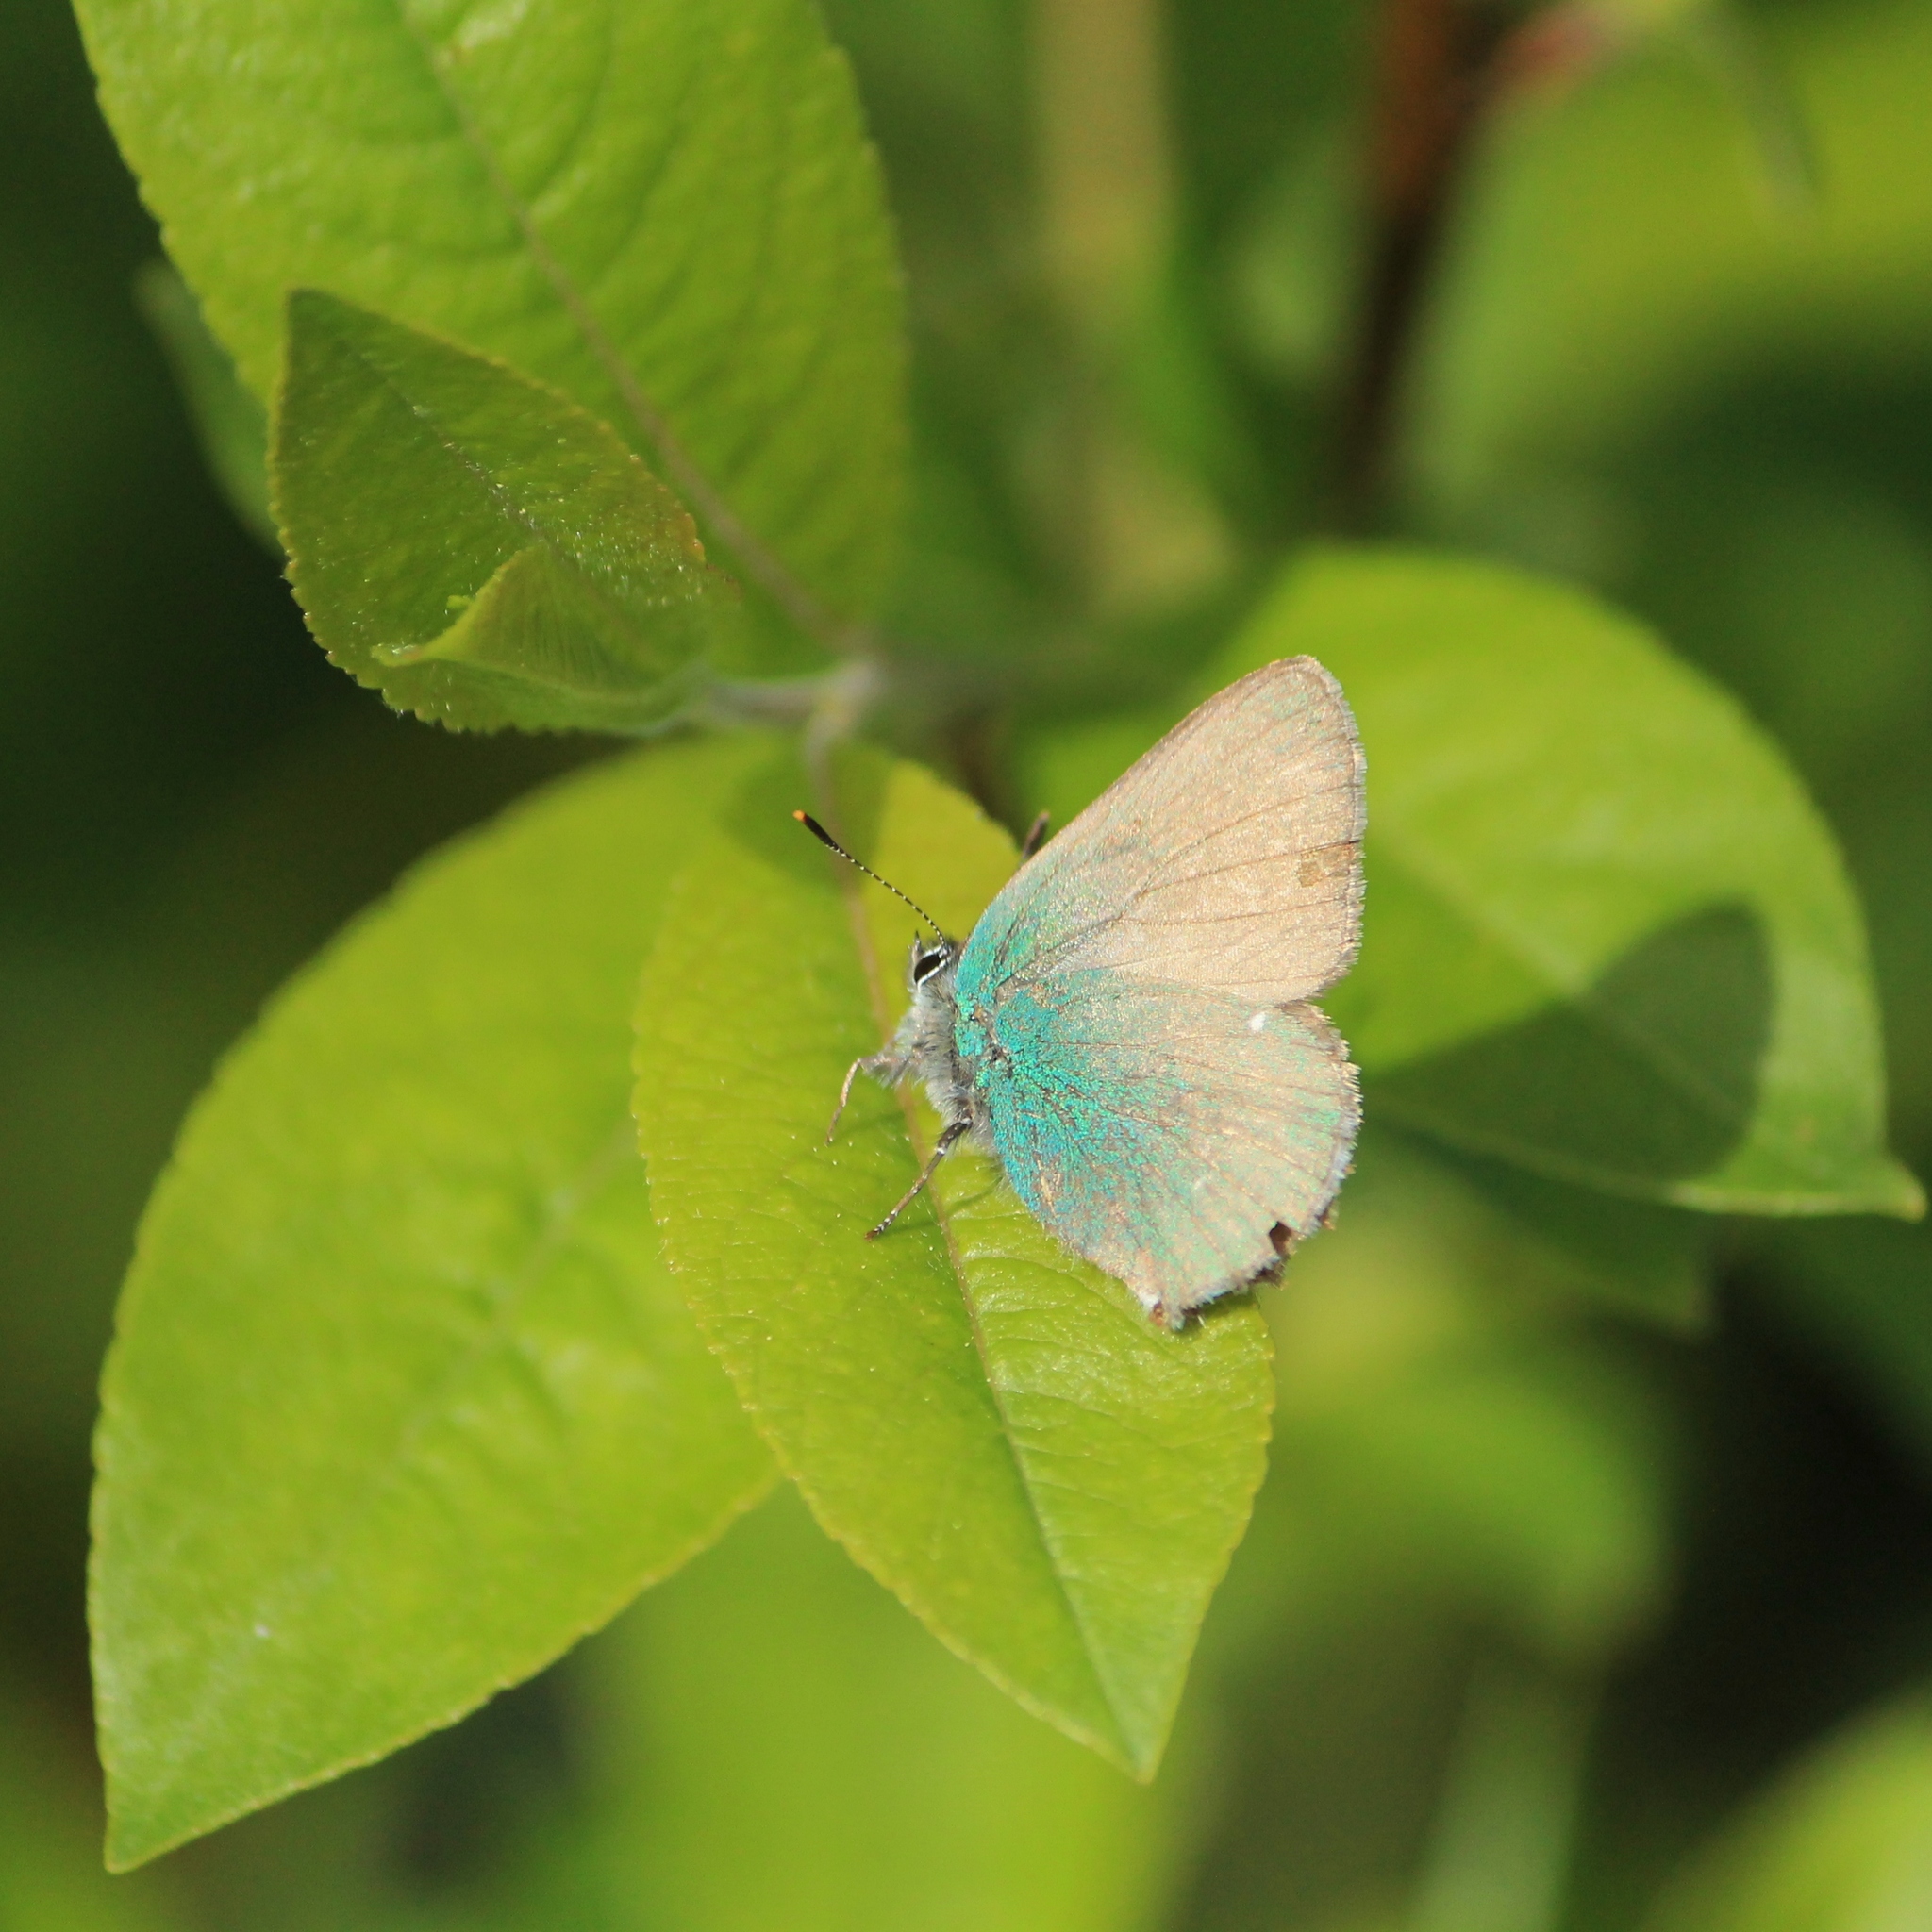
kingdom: Animalia
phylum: Arthropoda
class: Insecta
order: Lepidoptera
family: Lycaenidae
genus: Callophrys
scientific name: Callophrys rubi
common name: Green hairstreak
